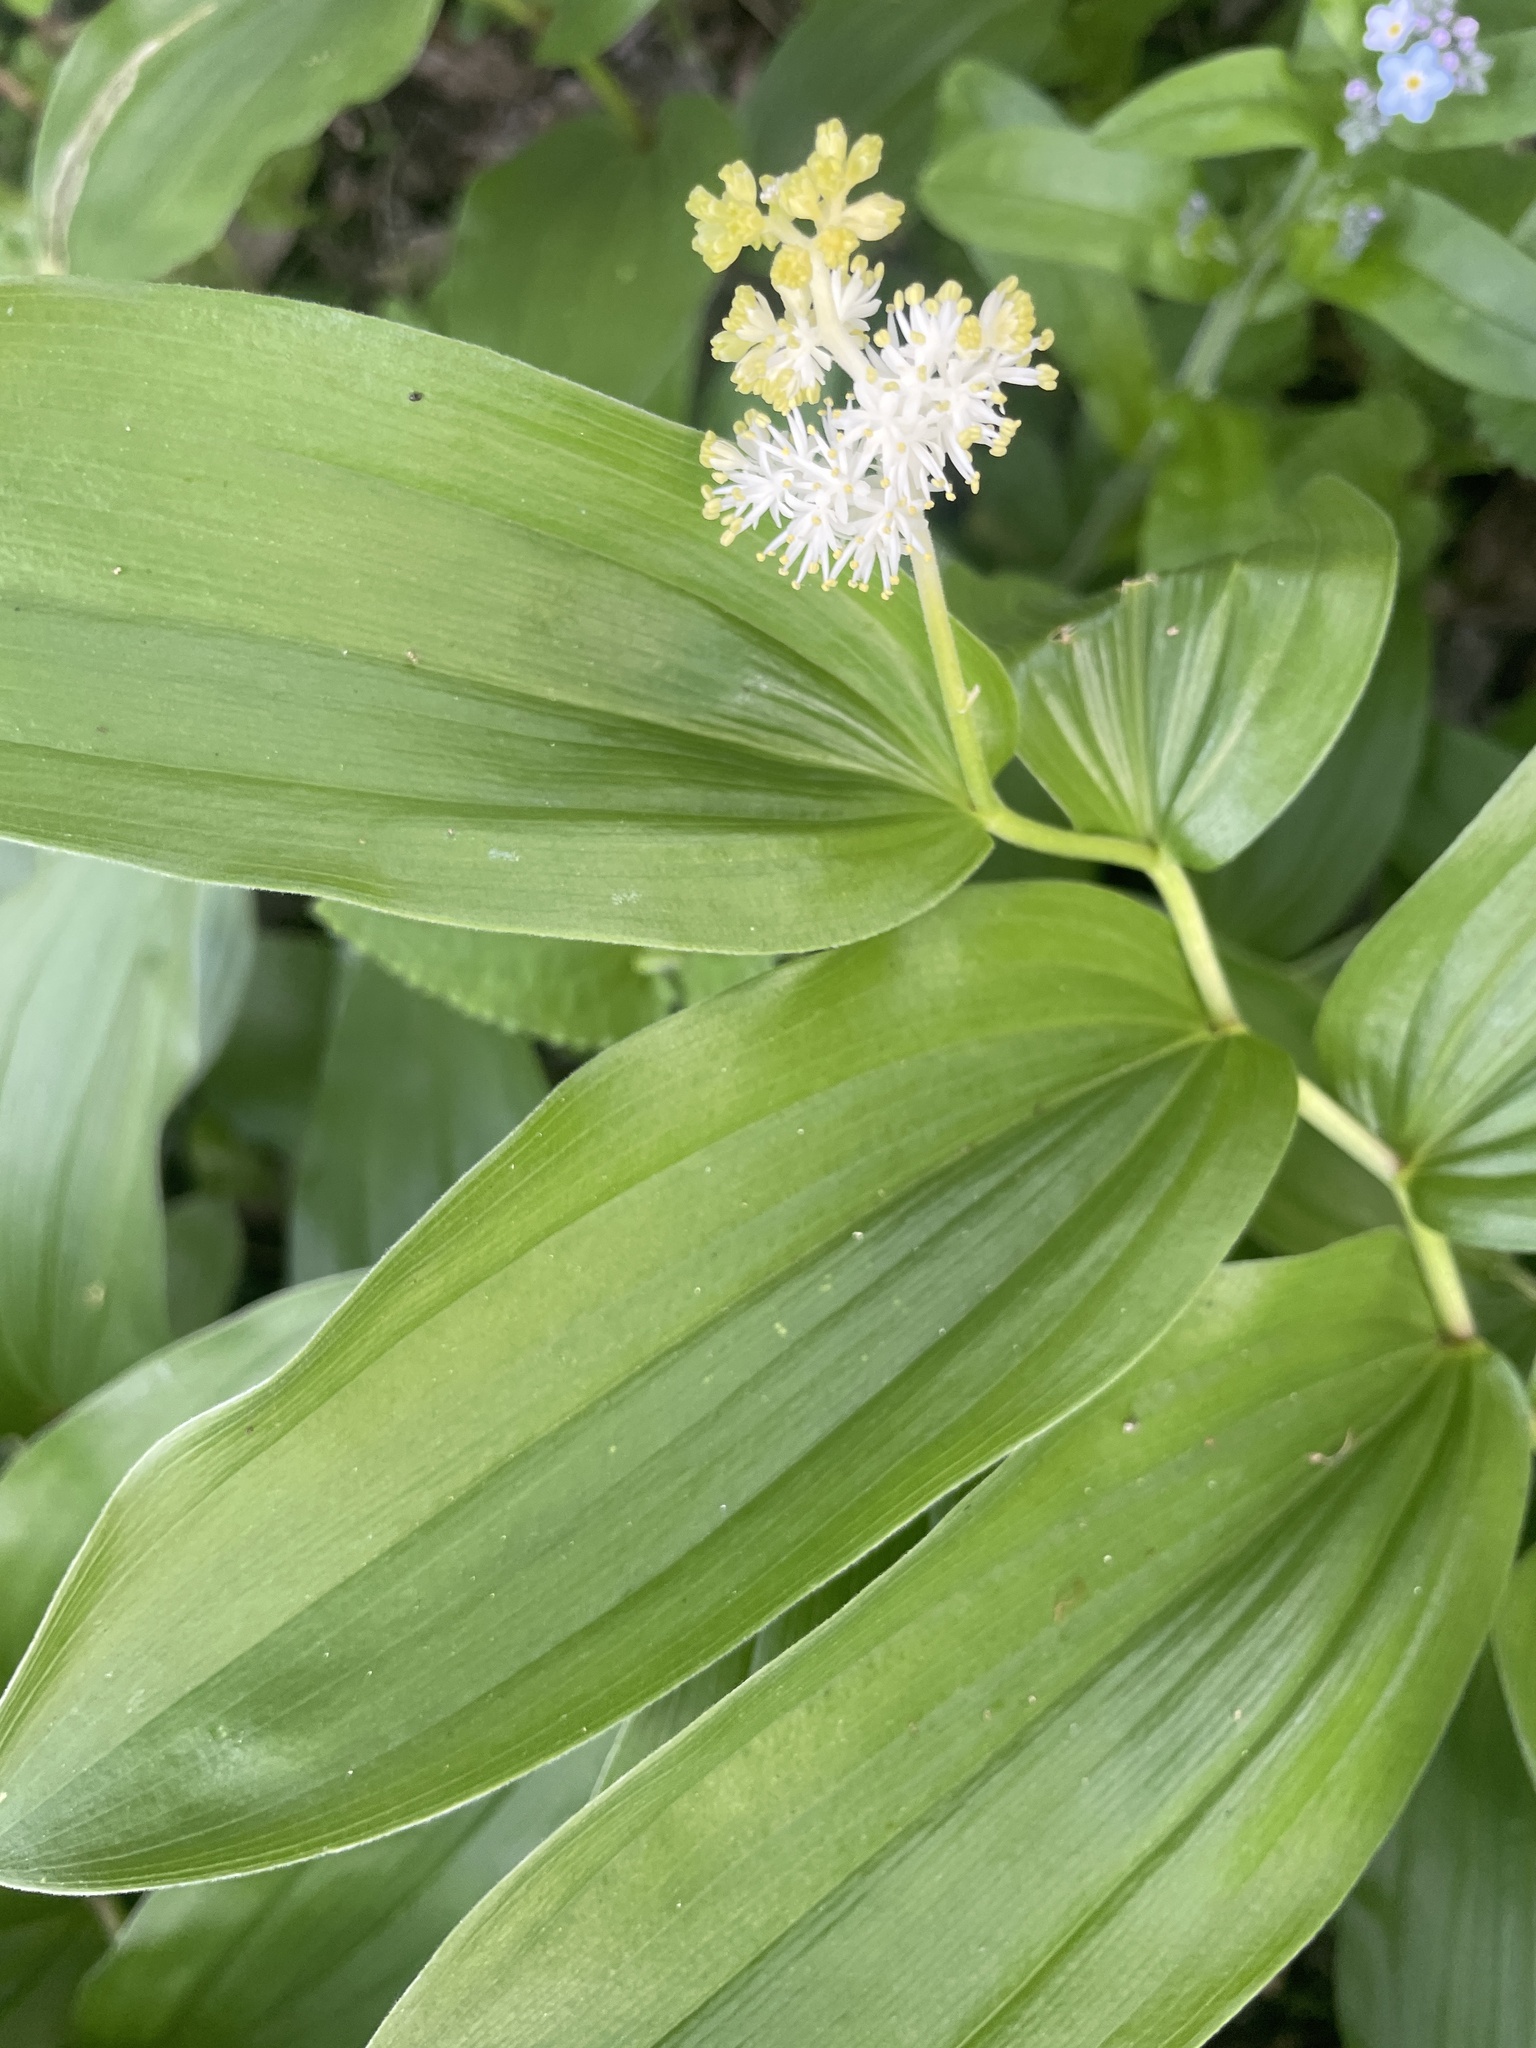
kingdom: Plantae
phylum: Tracheophyta
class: Liliopsida
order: Asparagales
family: Asparagaceae
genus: Maianthemum
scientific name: Maianthemum racemosum
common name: False spikenard
